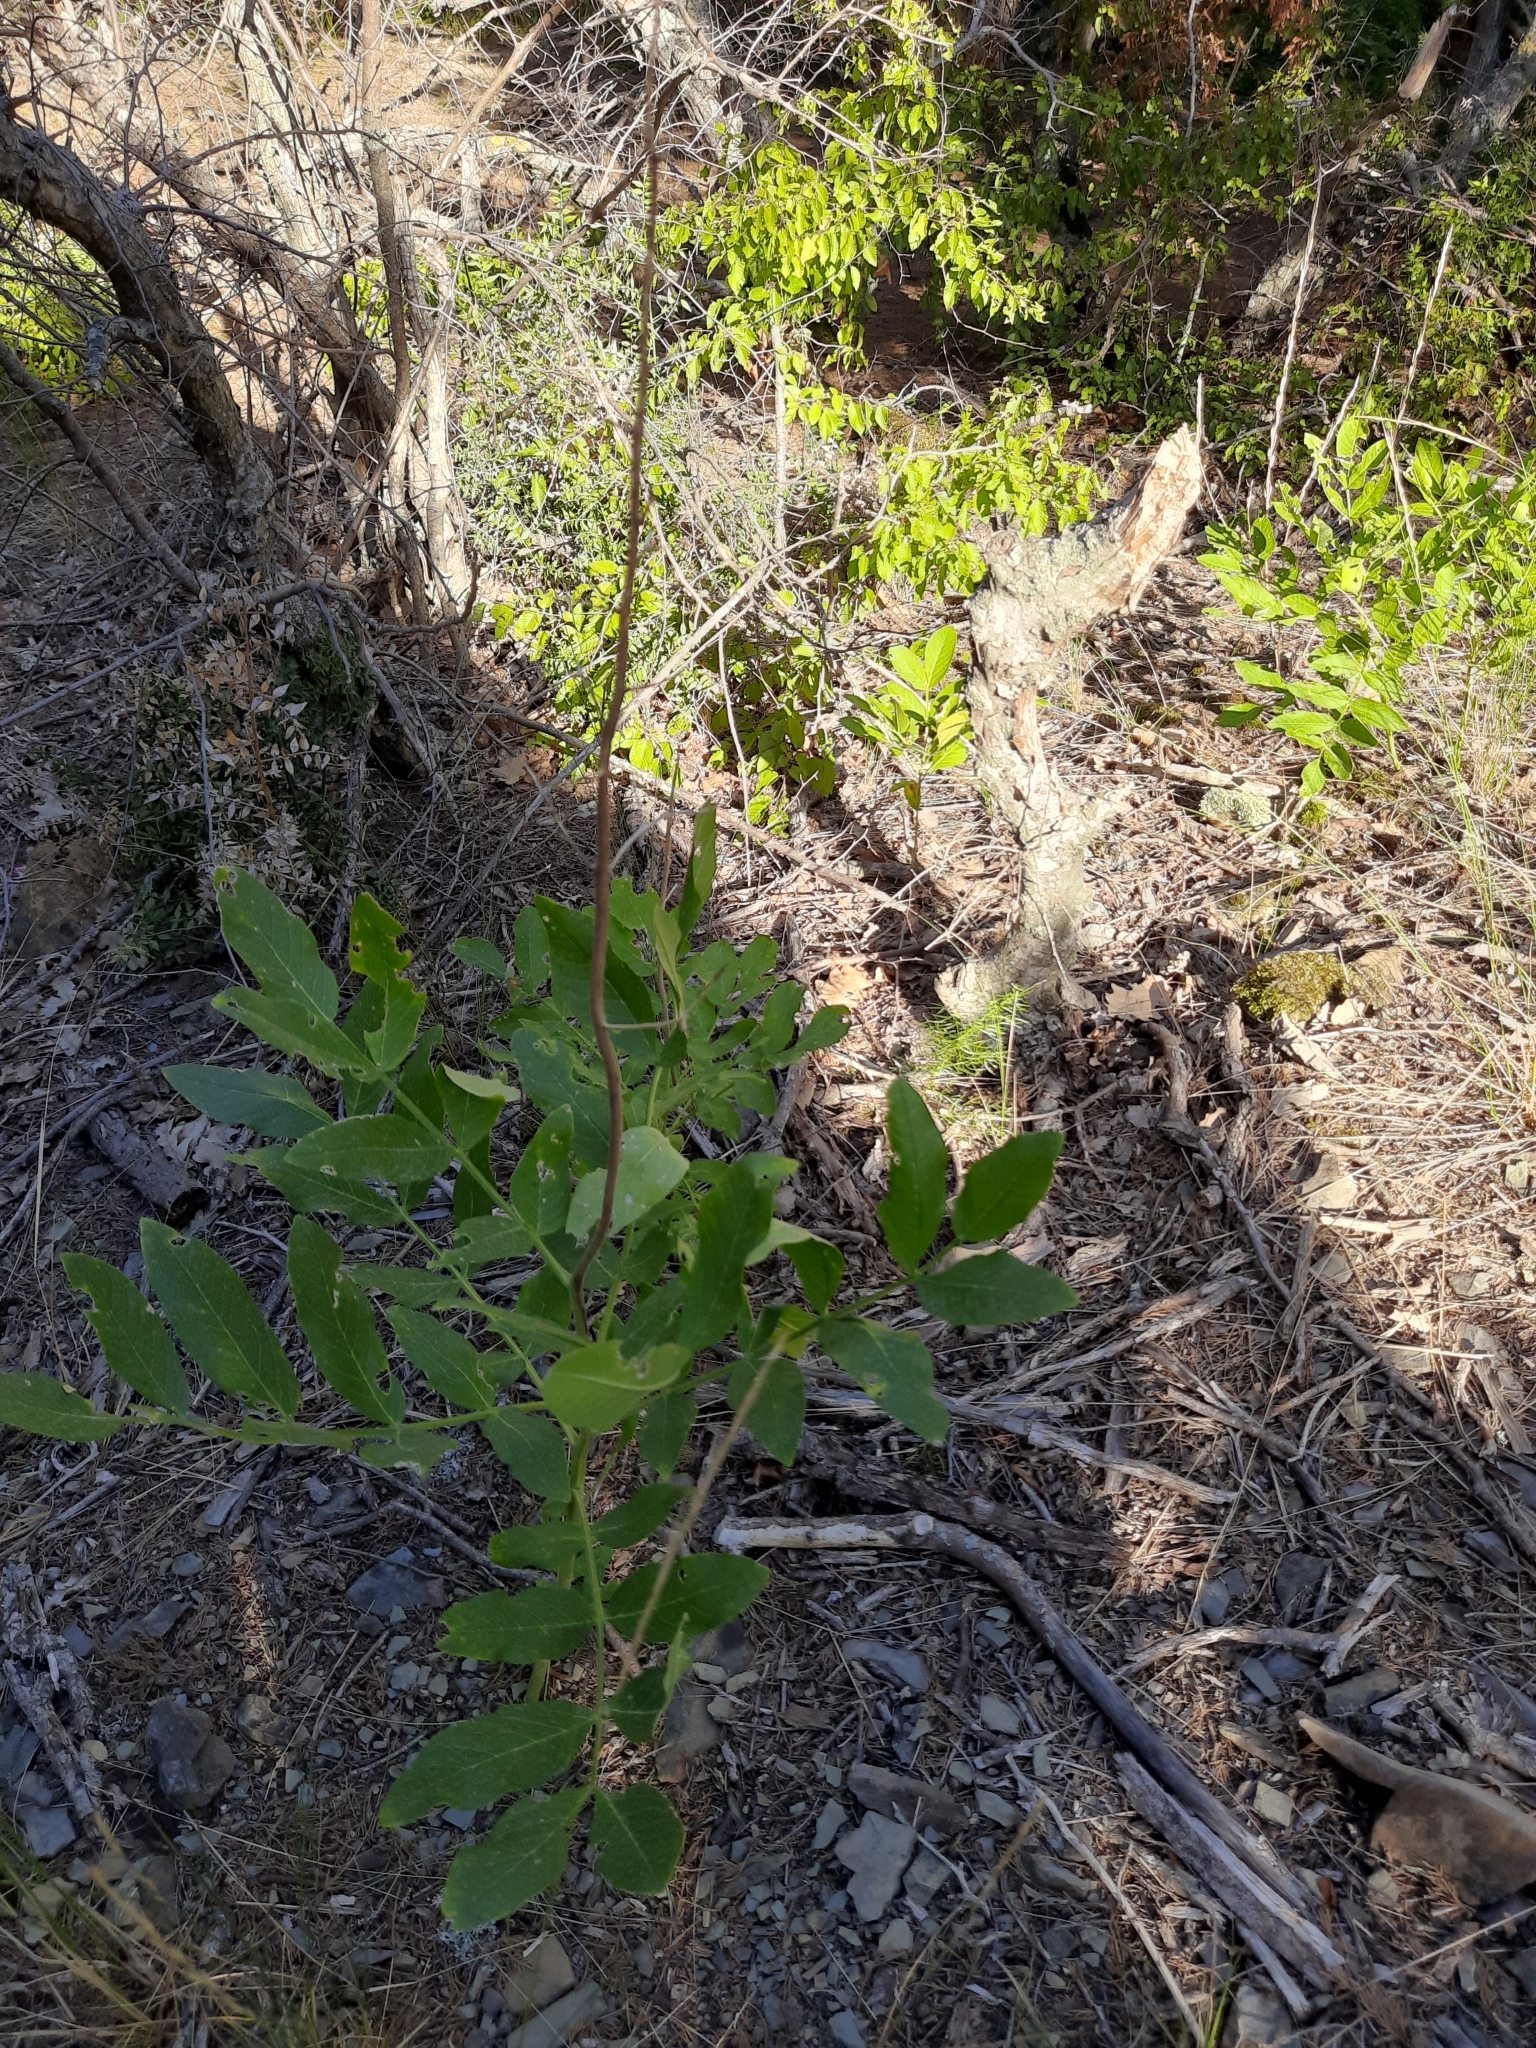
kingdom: Plantae
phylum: Tracheophyta
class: Magnoliopsida
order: Sapindales
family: Rutaceae
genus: Dictamnus
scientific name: Dictamnus albus
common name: Gasplant
